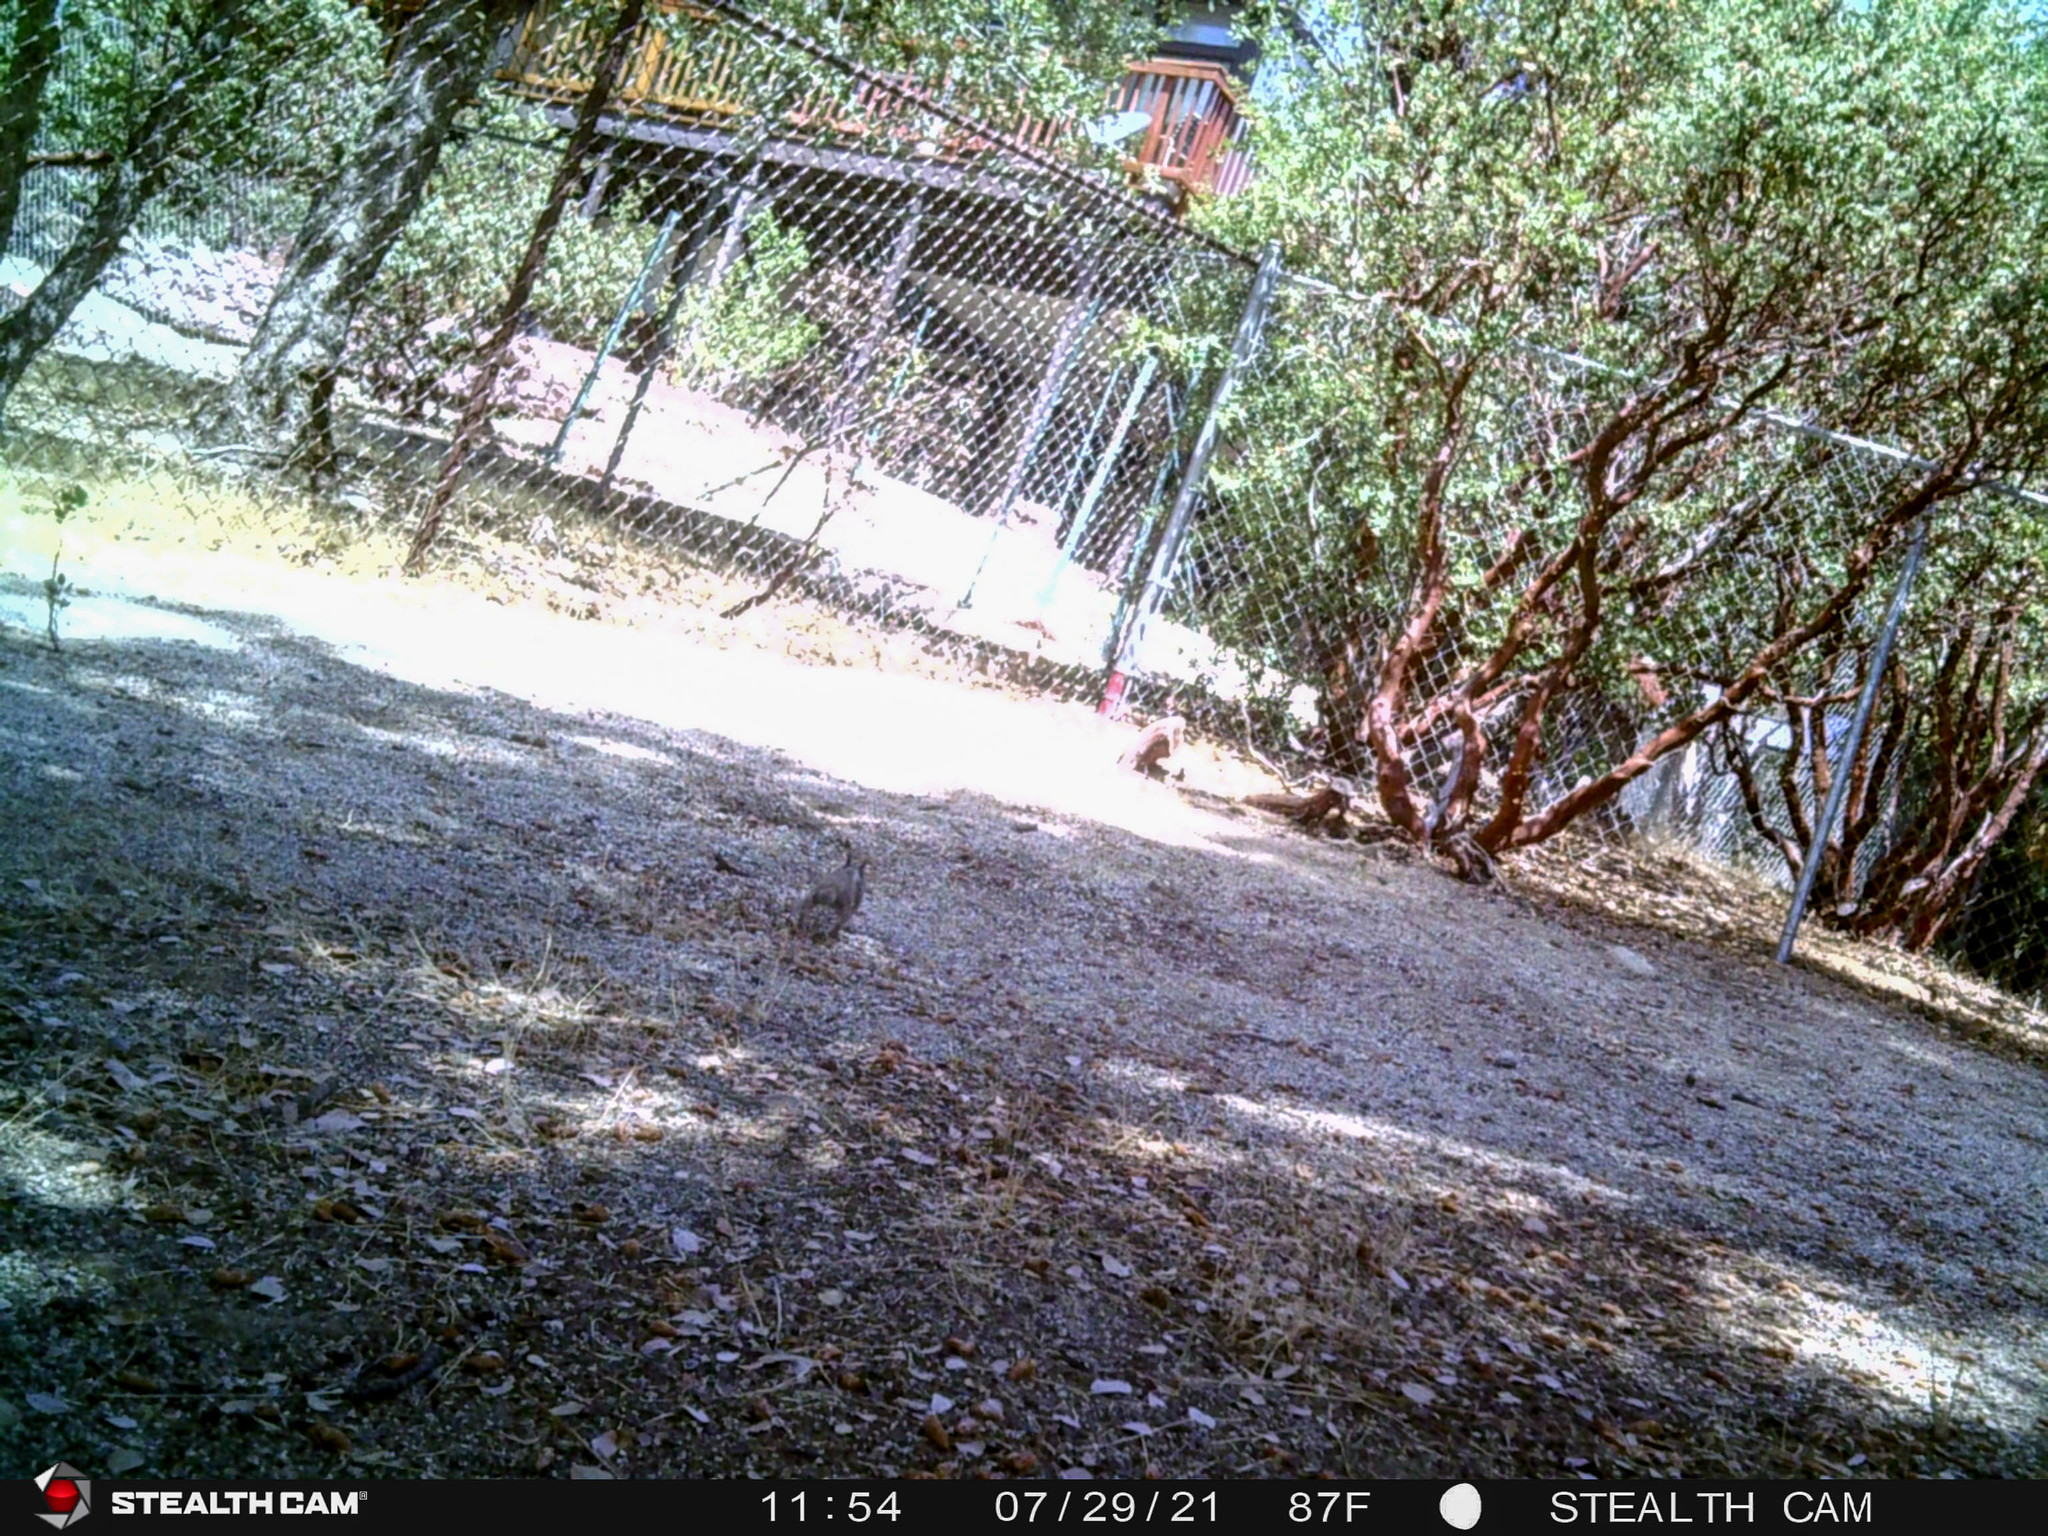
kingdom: Animalia
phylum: Chordata
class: Mammalia
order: Rodentia
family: Sciuridae
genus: Otospermophilus
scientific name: Otospermophilus beecheyi
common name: California ground squirrel
